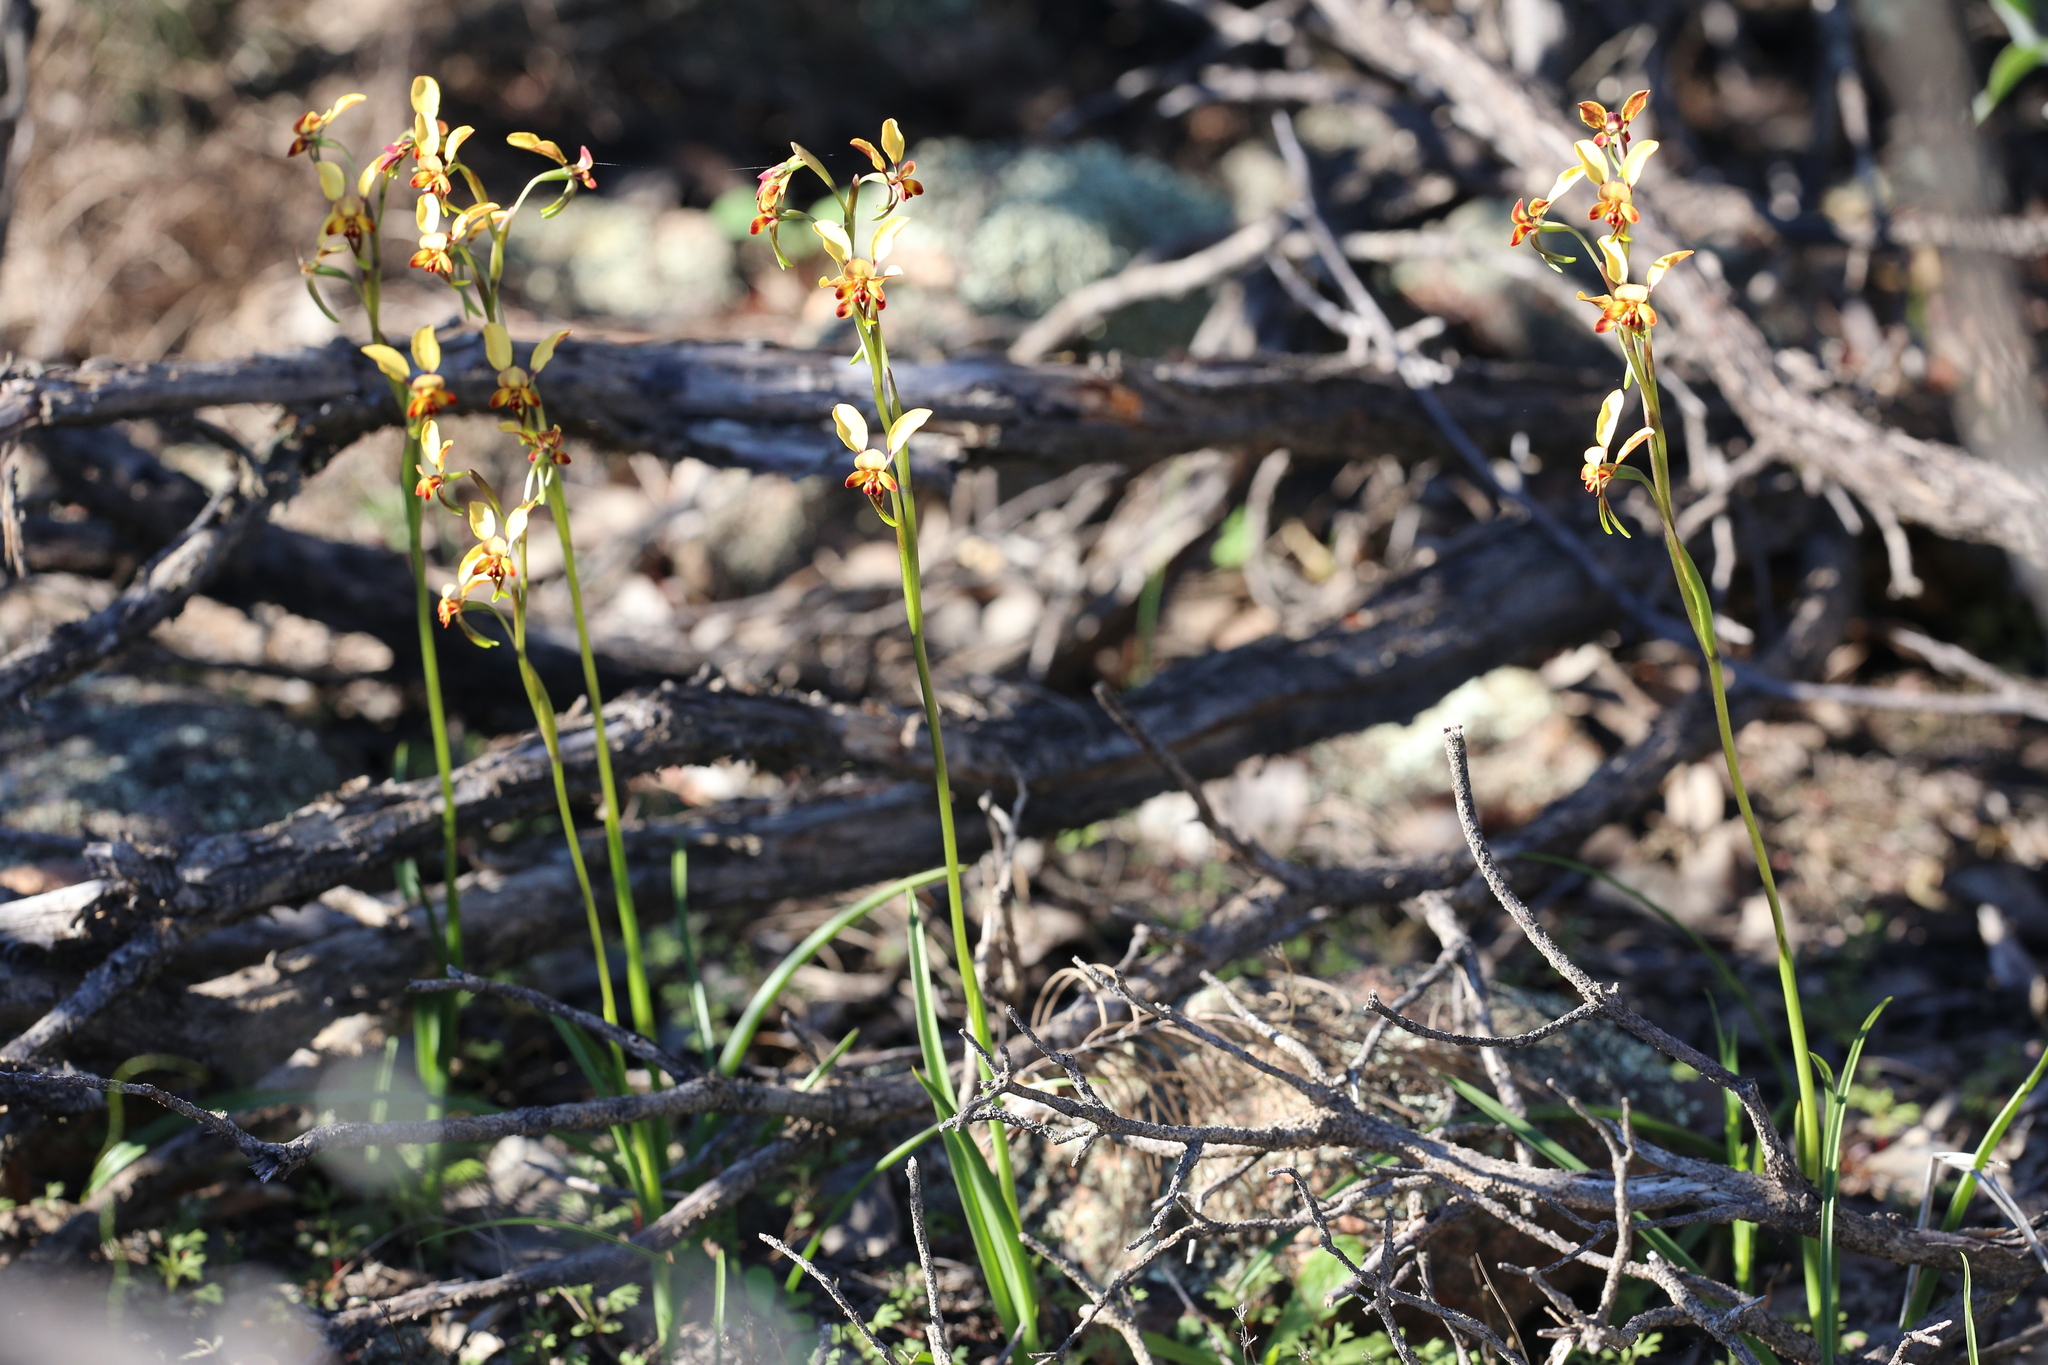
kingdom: Plantae
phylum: Tracheophyta
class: Liliopsida
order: Asparagales
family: Orchidaceae
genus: Diuris
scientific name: Diuris corymbosa
